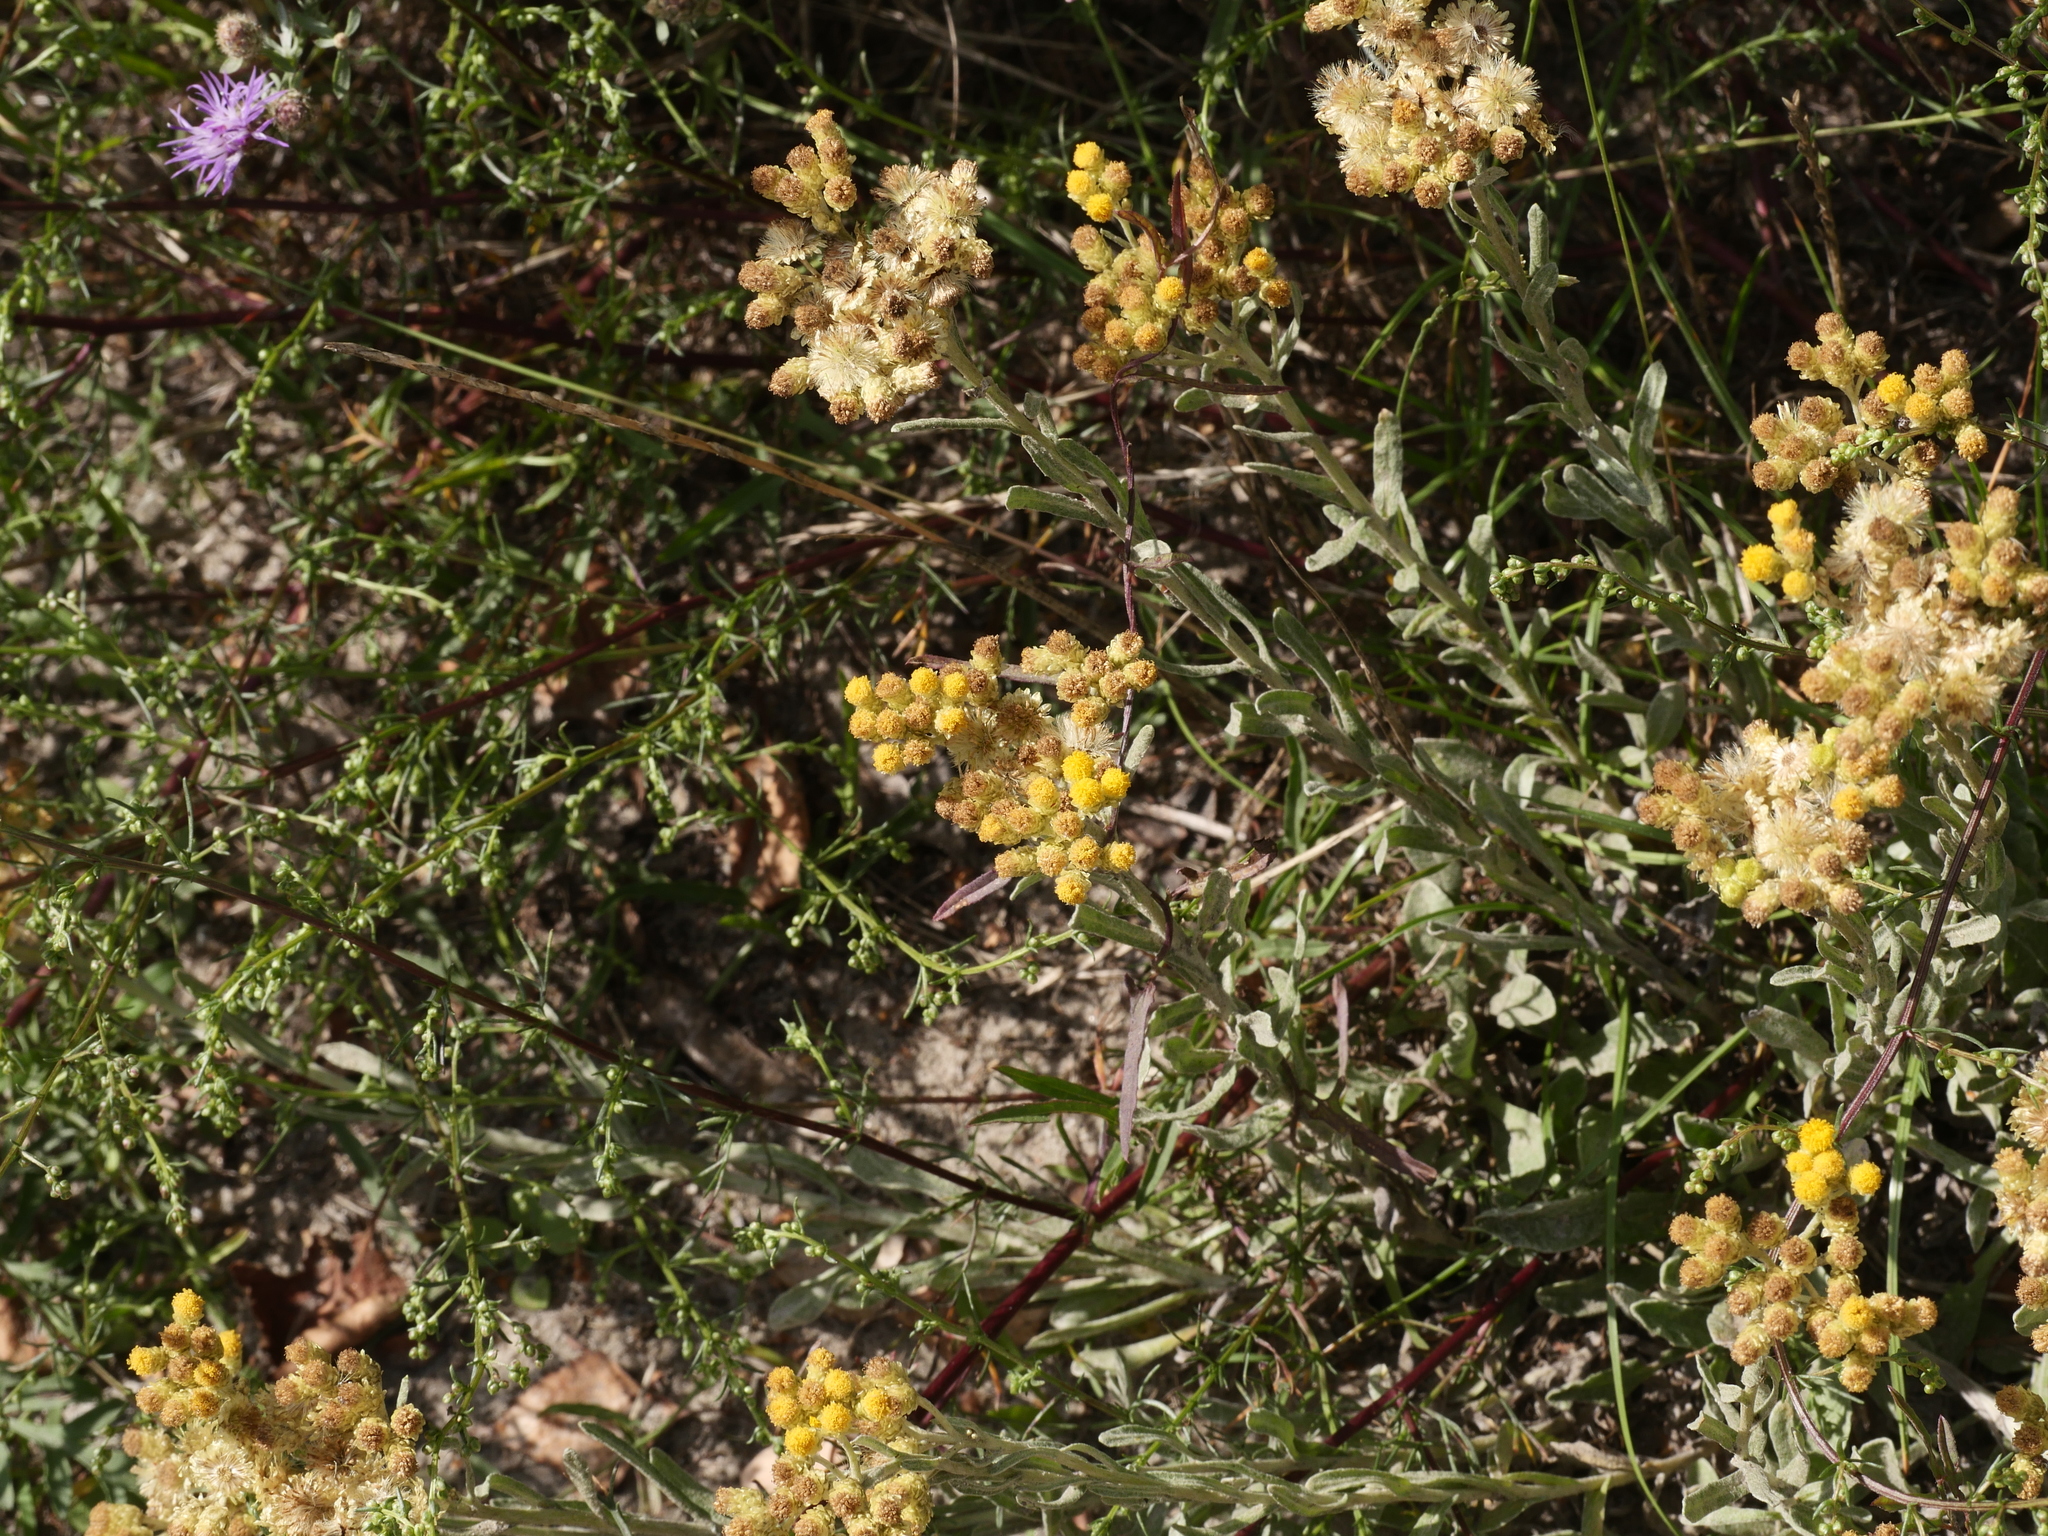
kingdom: Plantae
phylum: Tracheophyta
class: Magnoliopsida
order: Asterales
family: Asteraceae
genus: Helichrysum
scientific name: Helichrysum arenarium
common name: Strawflower
